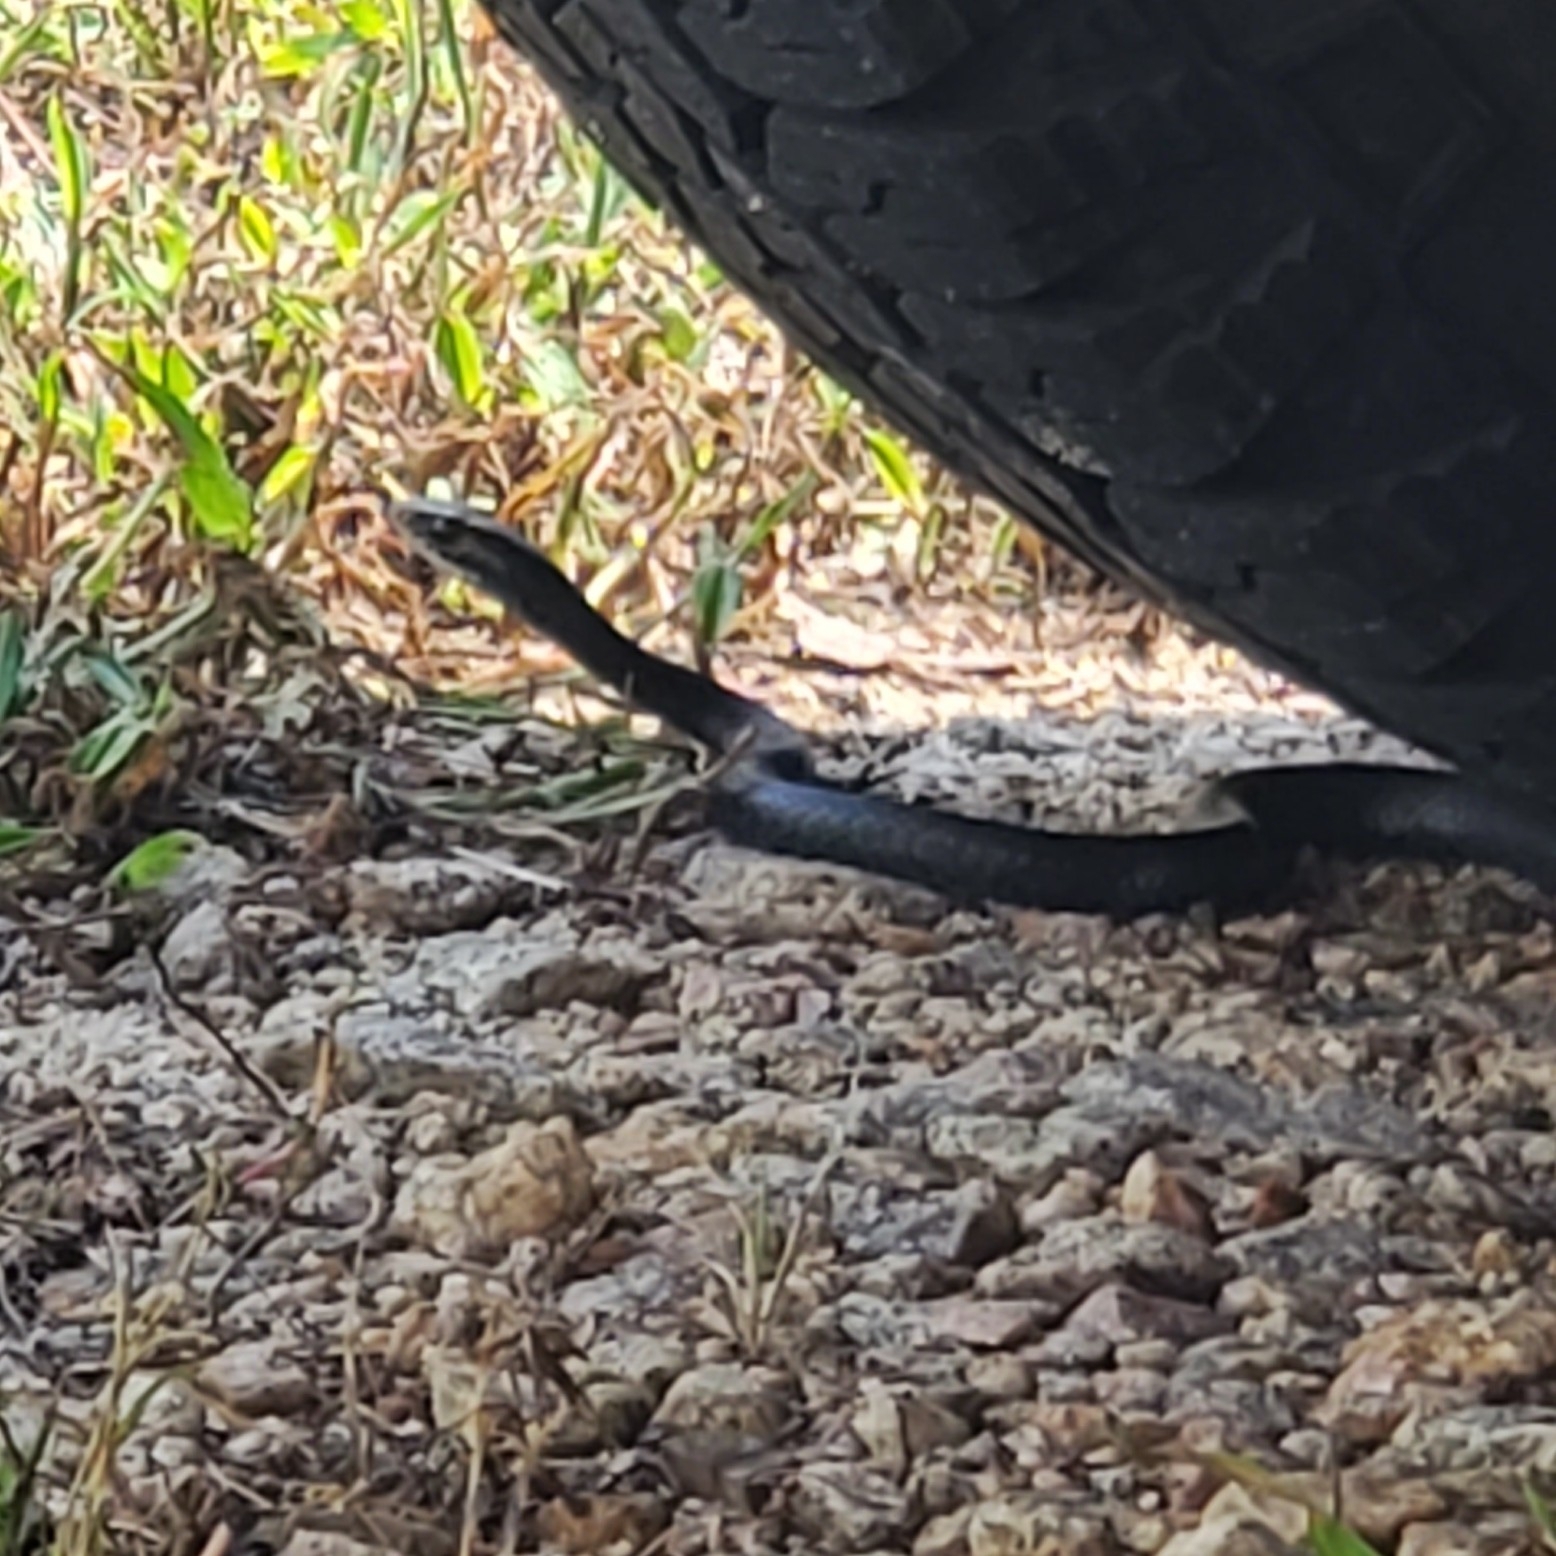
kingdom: Animalia
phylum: Chordata
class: Squamata
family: Colubridae
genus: Coluber
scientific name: Coluber constrictor
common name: Eastern racer
